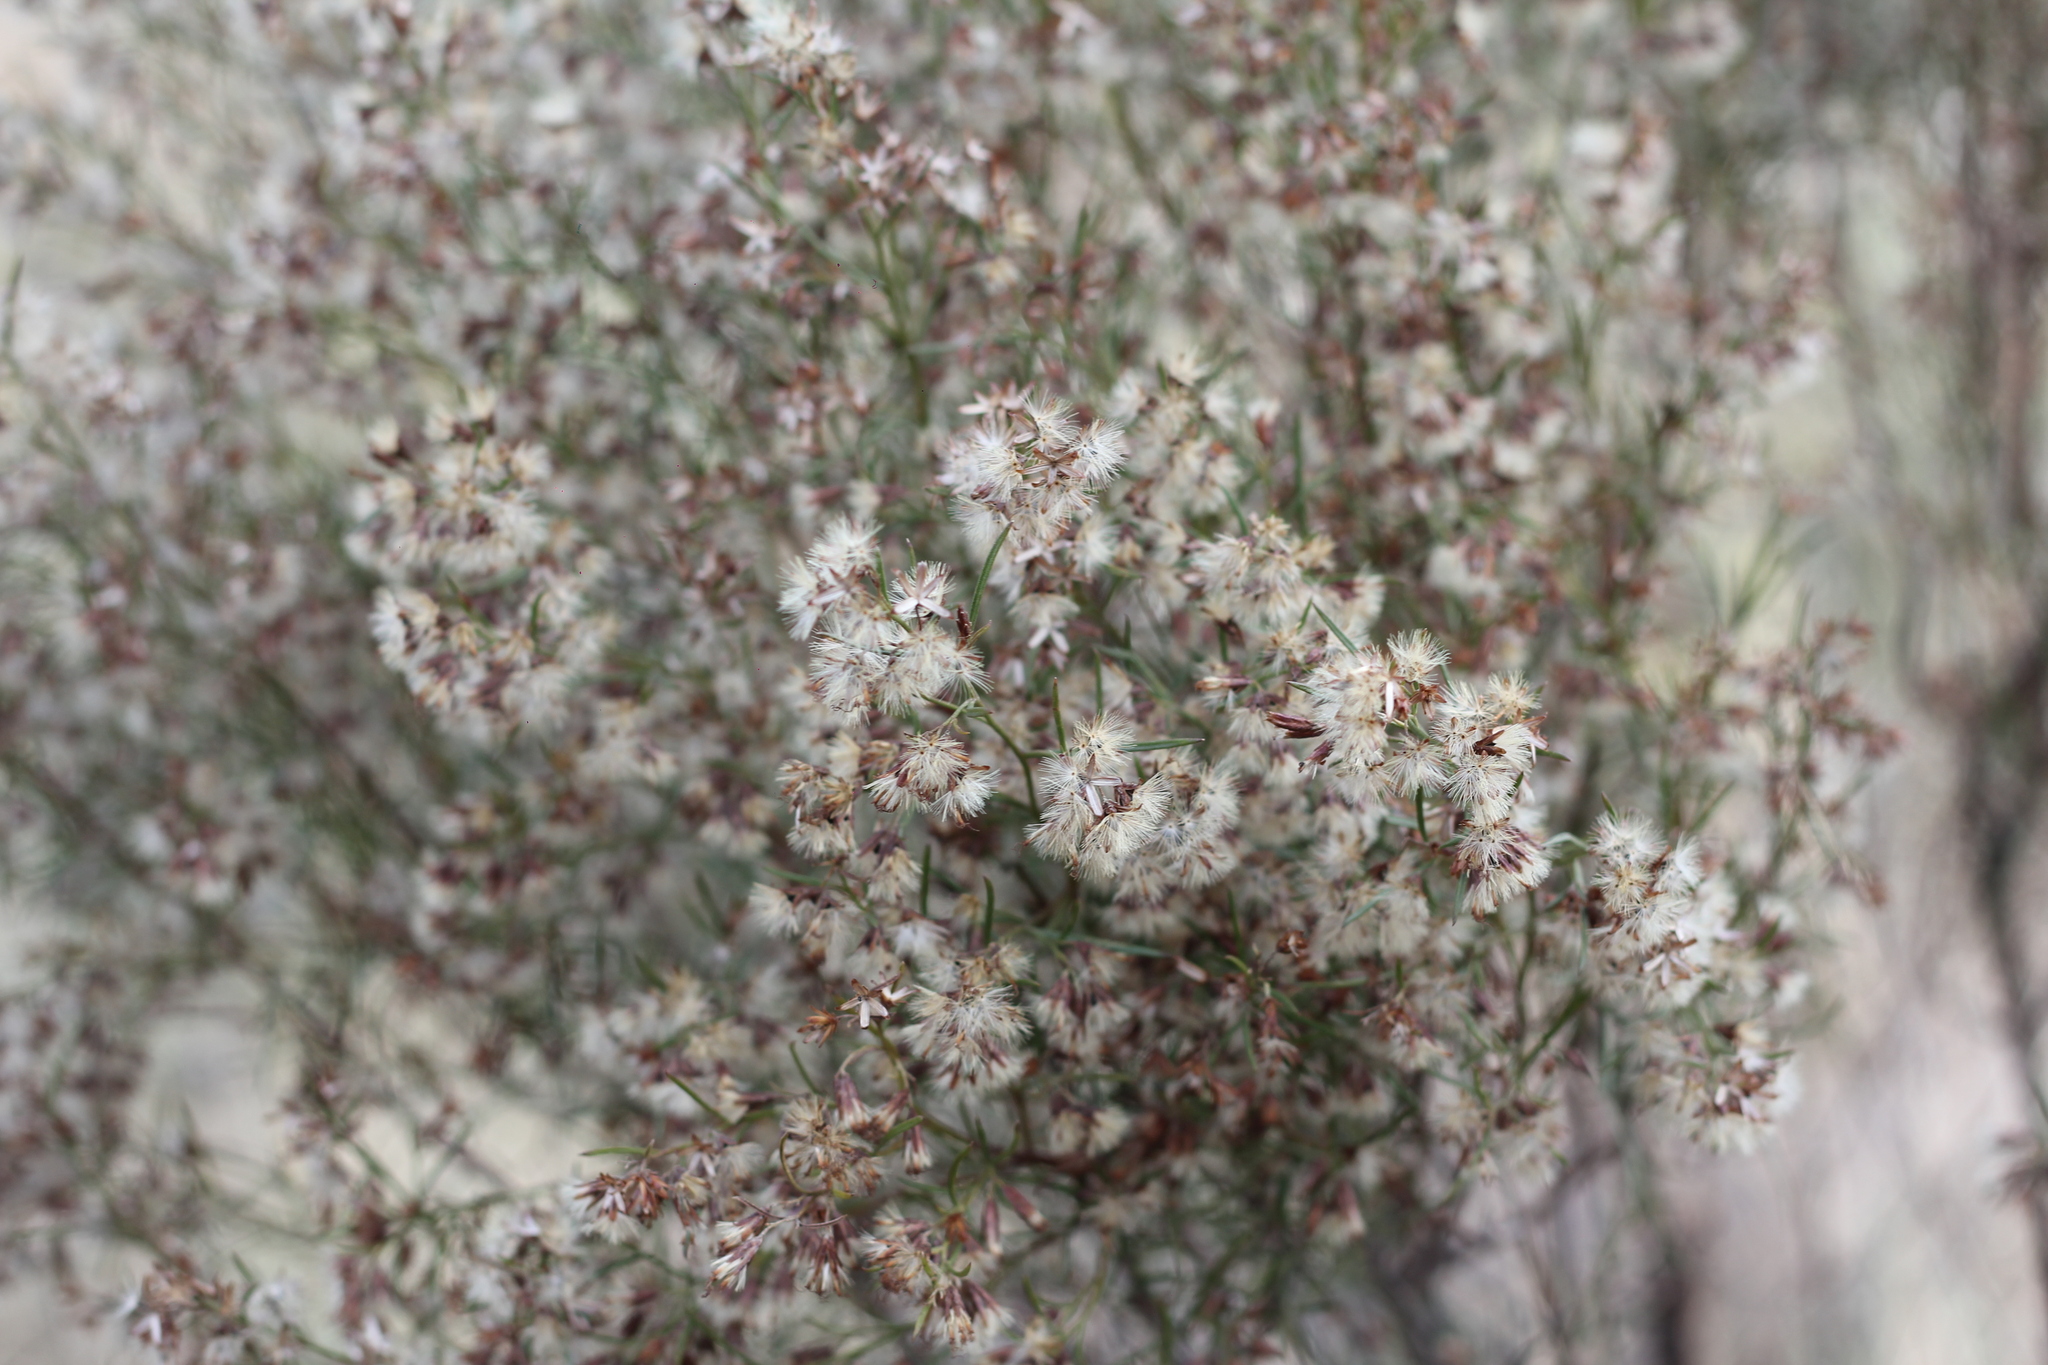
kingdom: Plantae
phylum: Tracheophyta
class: Magnoliopsida
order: Asterales
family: Asteraceae
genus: Acanthostyles
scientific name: Acanthostyles buniifolius
